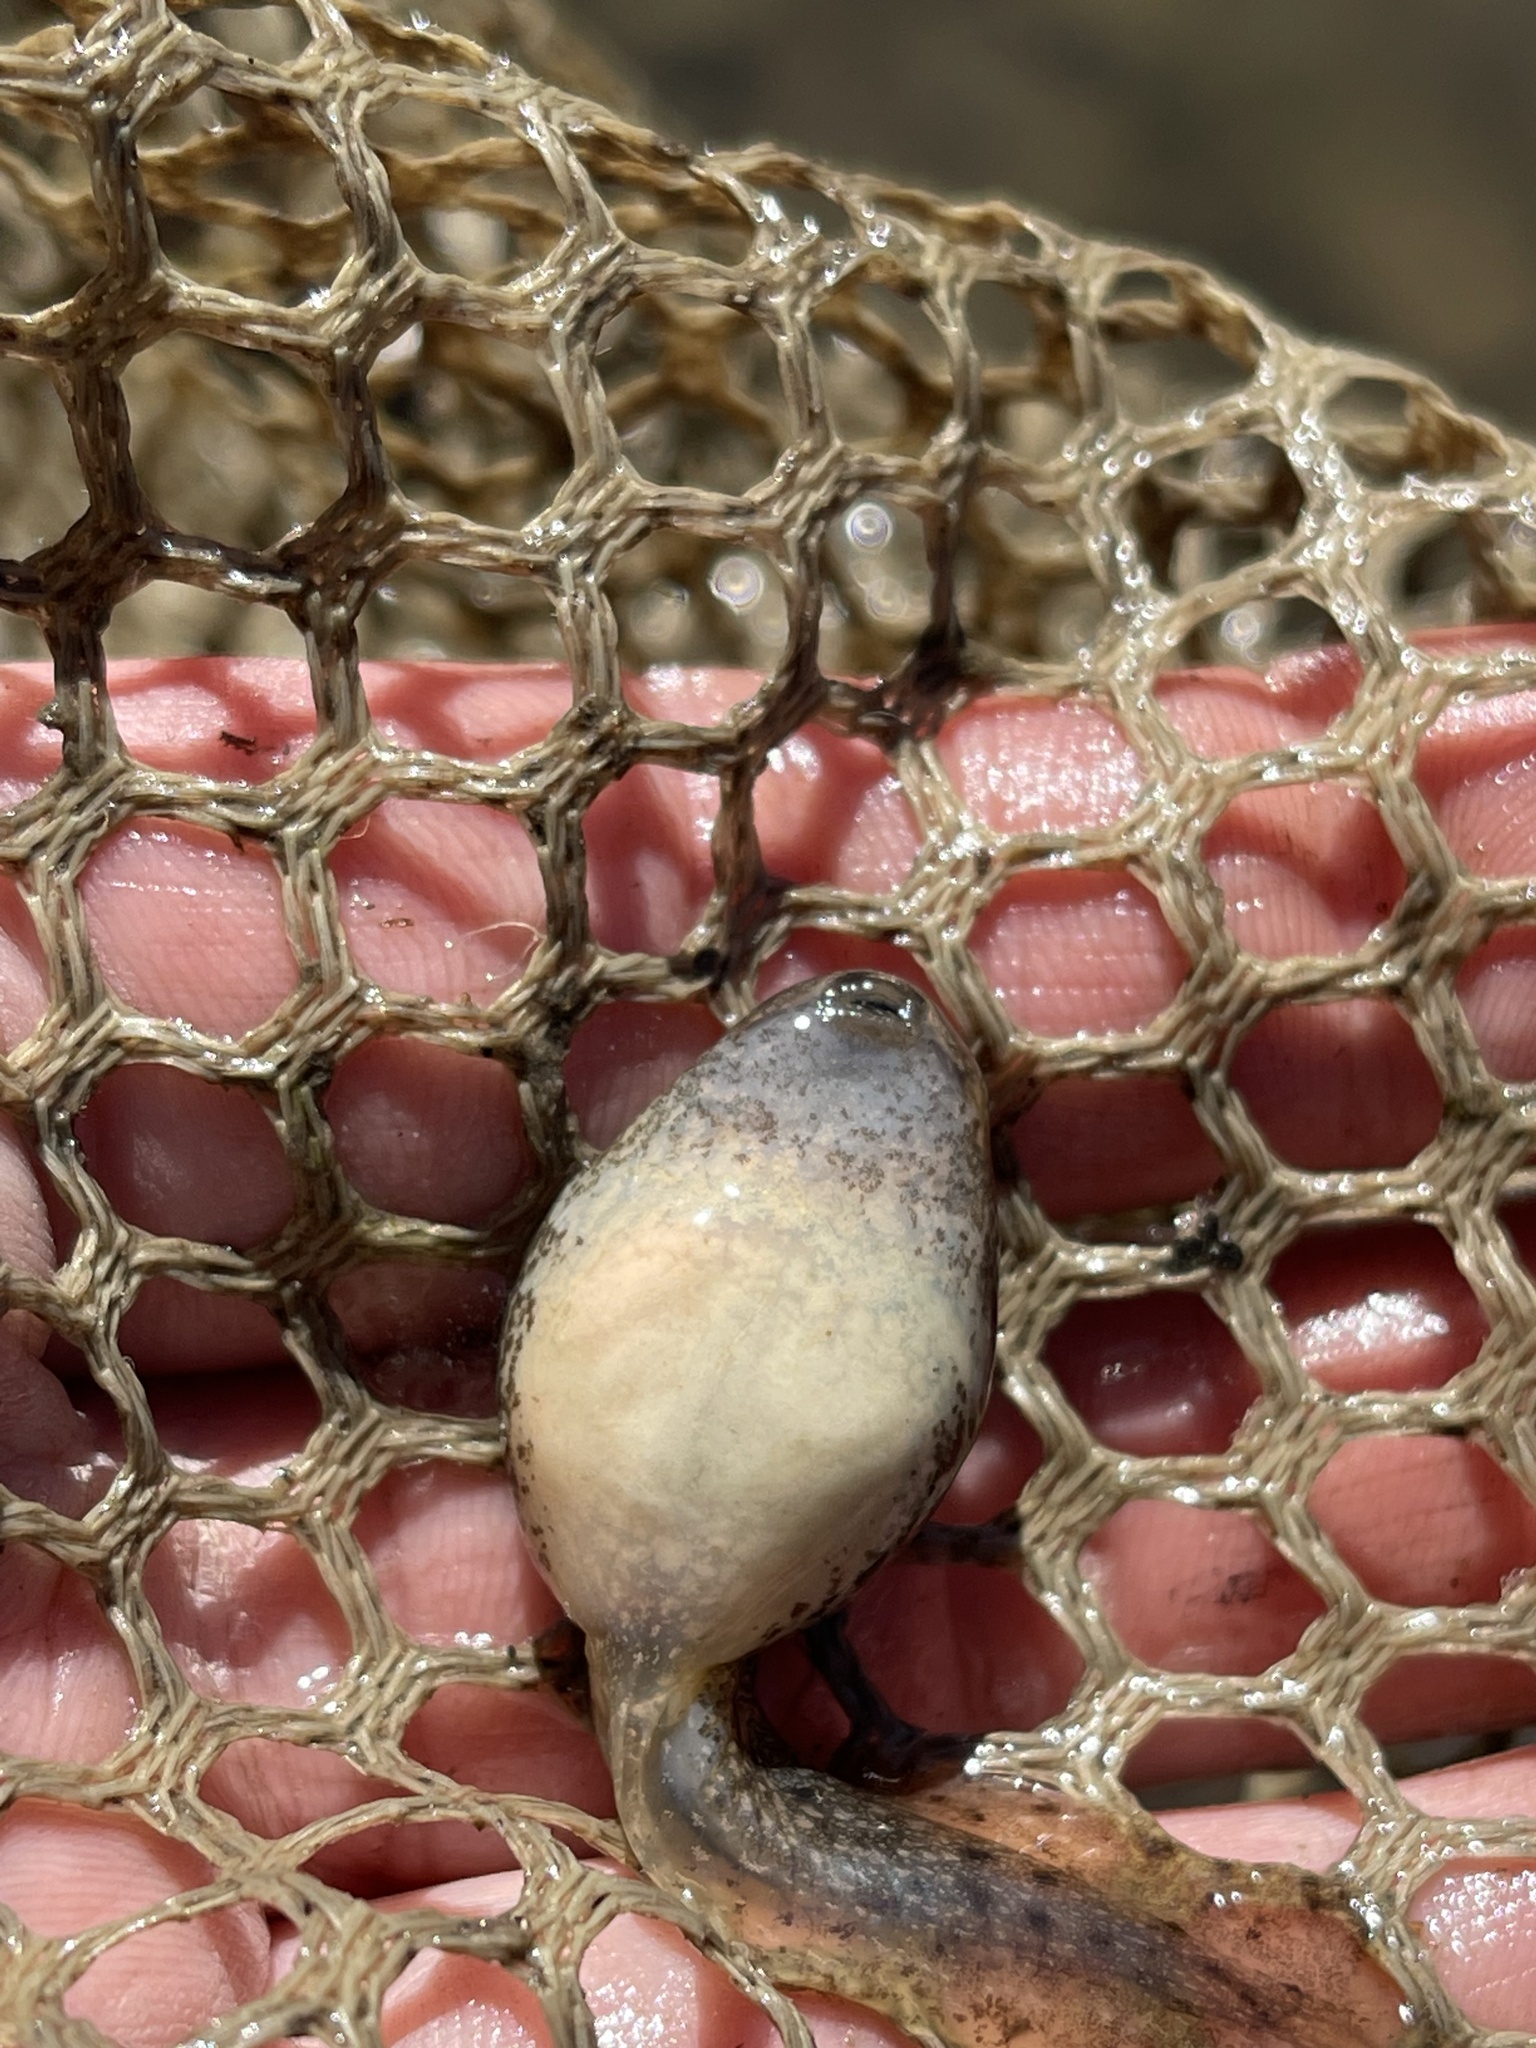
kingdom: Animalia
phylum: Chordata
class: Amphibia
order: Anura
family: Ranidae
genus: Lithobates
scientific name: Lithobates clamitans
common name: Green frog
